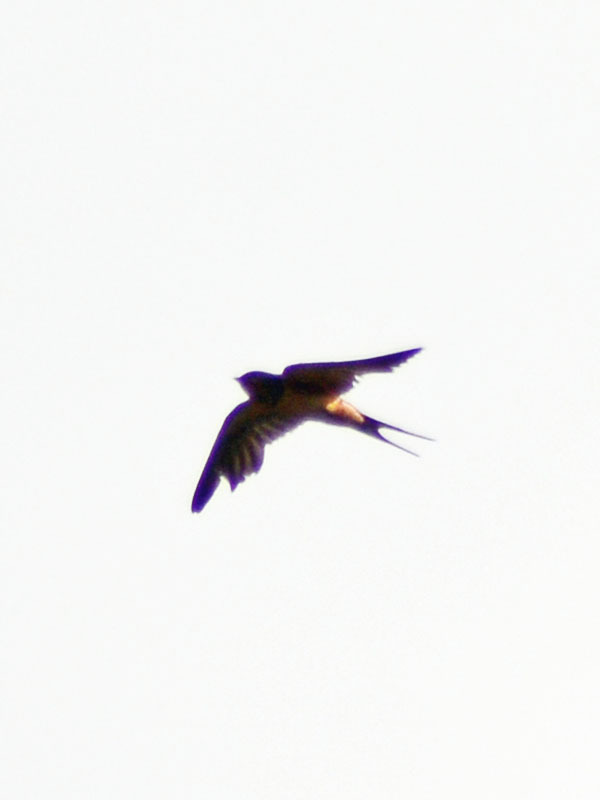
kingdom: Animalia
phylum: Chordata
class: Aves
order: Passeriformes
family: Hirundinidae
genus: Hirundo
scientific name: Hirundo rustica
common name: Barn swallow
